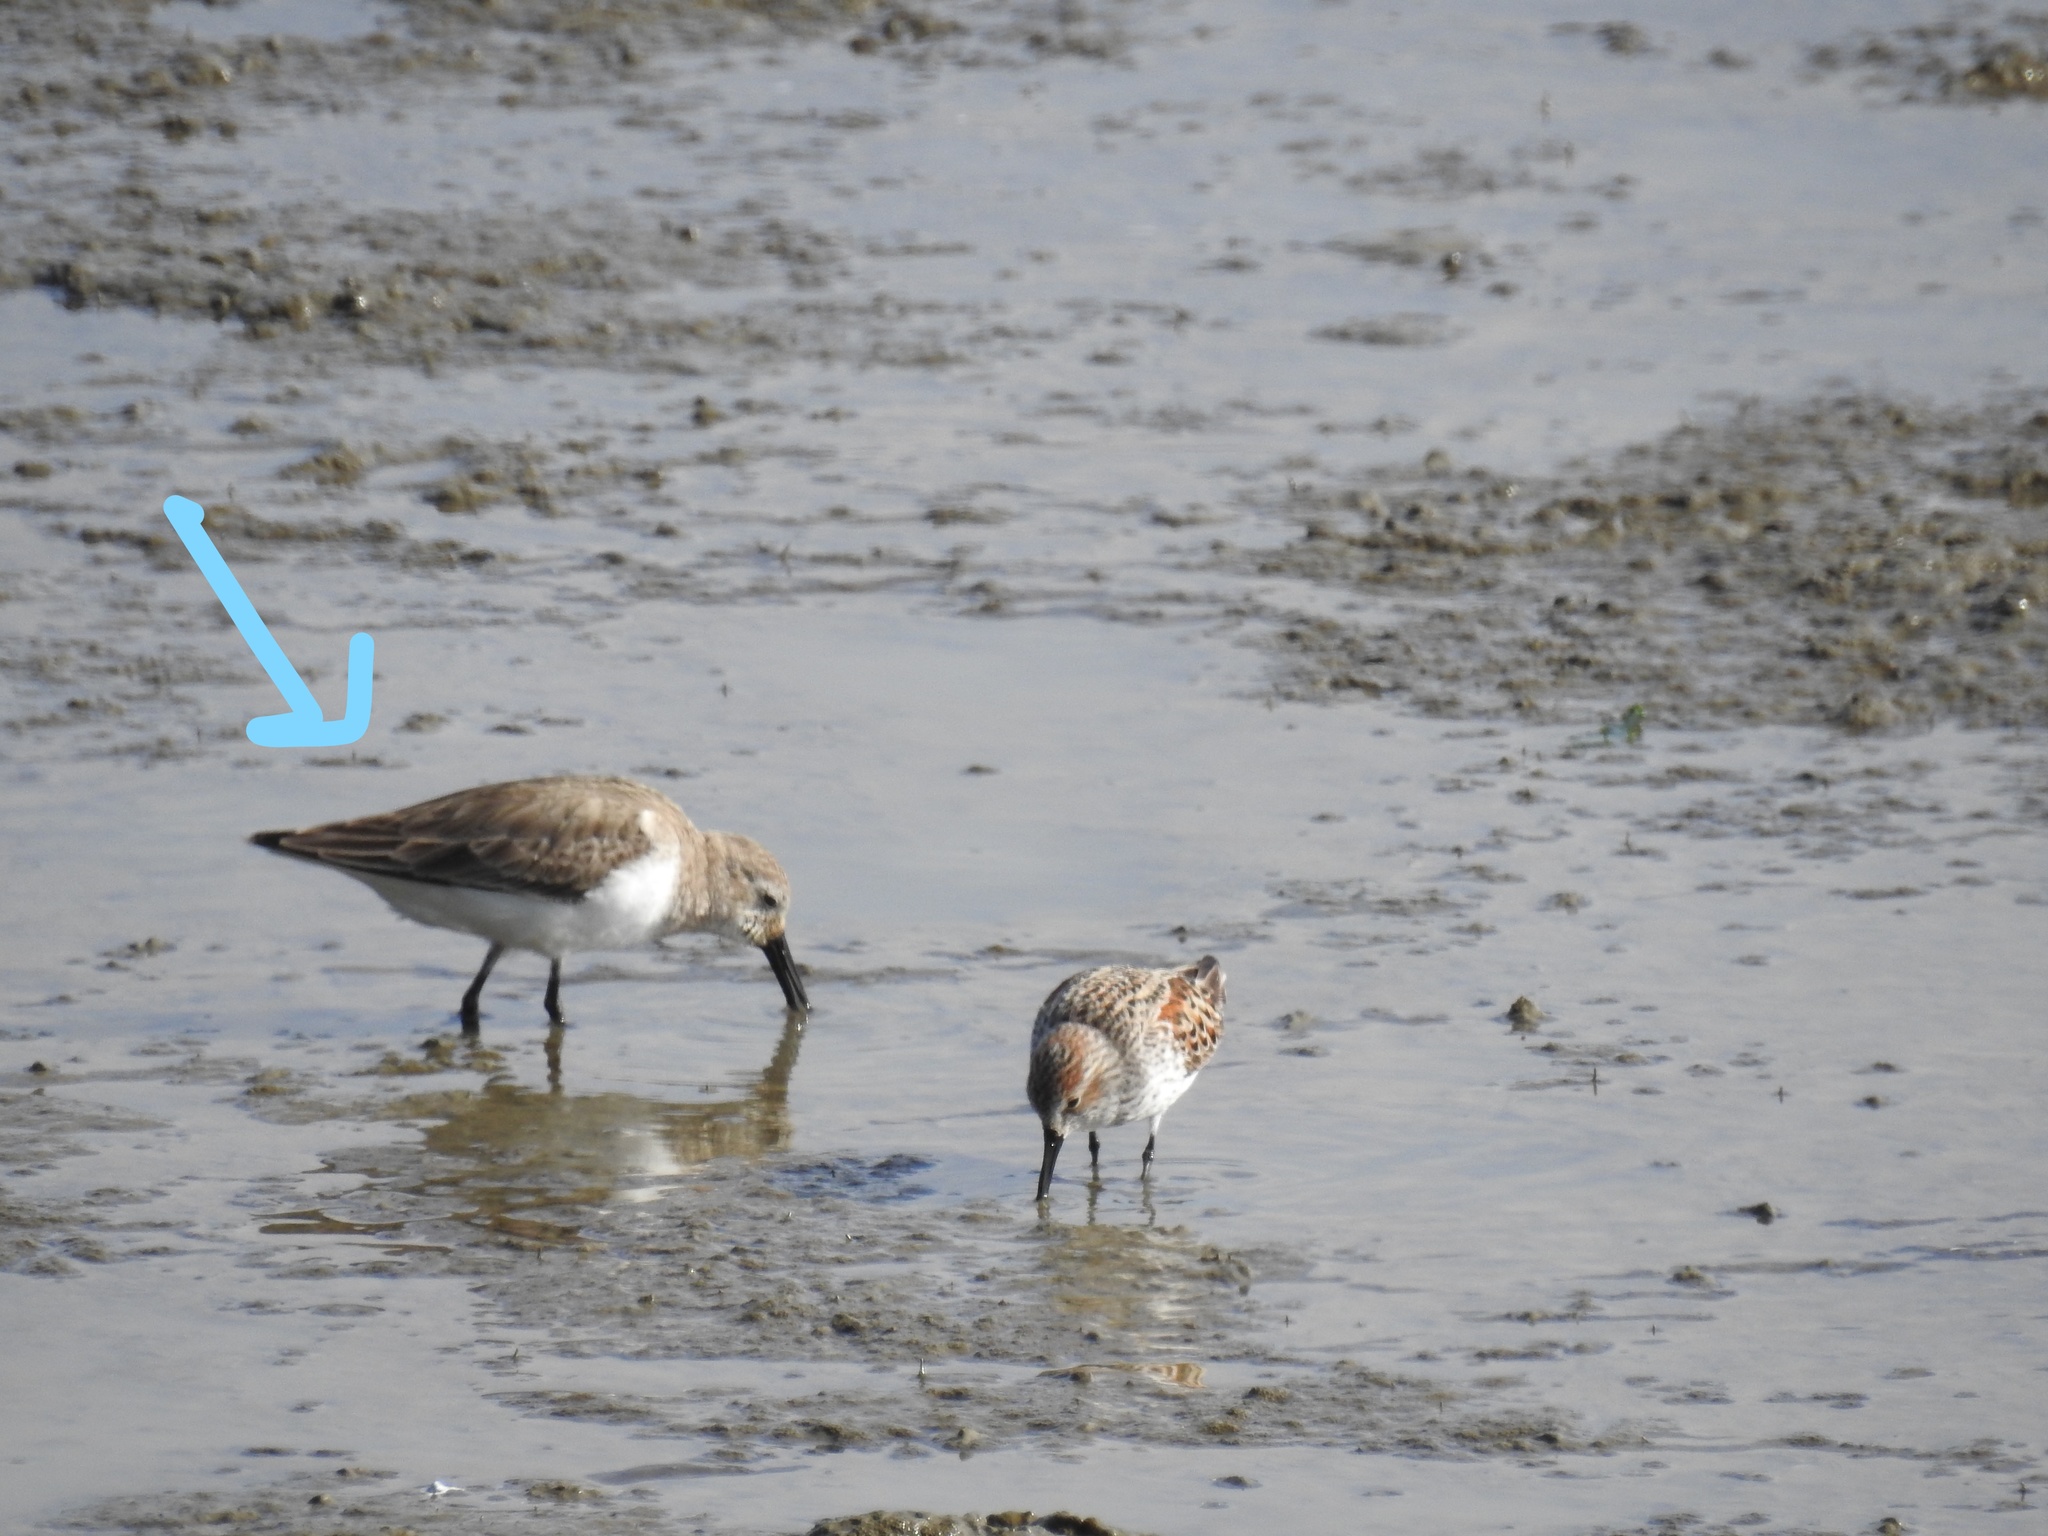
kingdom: Animalia
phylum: Chordata
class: Aves
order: Charadriiformes
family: Scolopacidae
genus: Calidris
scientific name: Calidris alpina
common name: Dunlin
